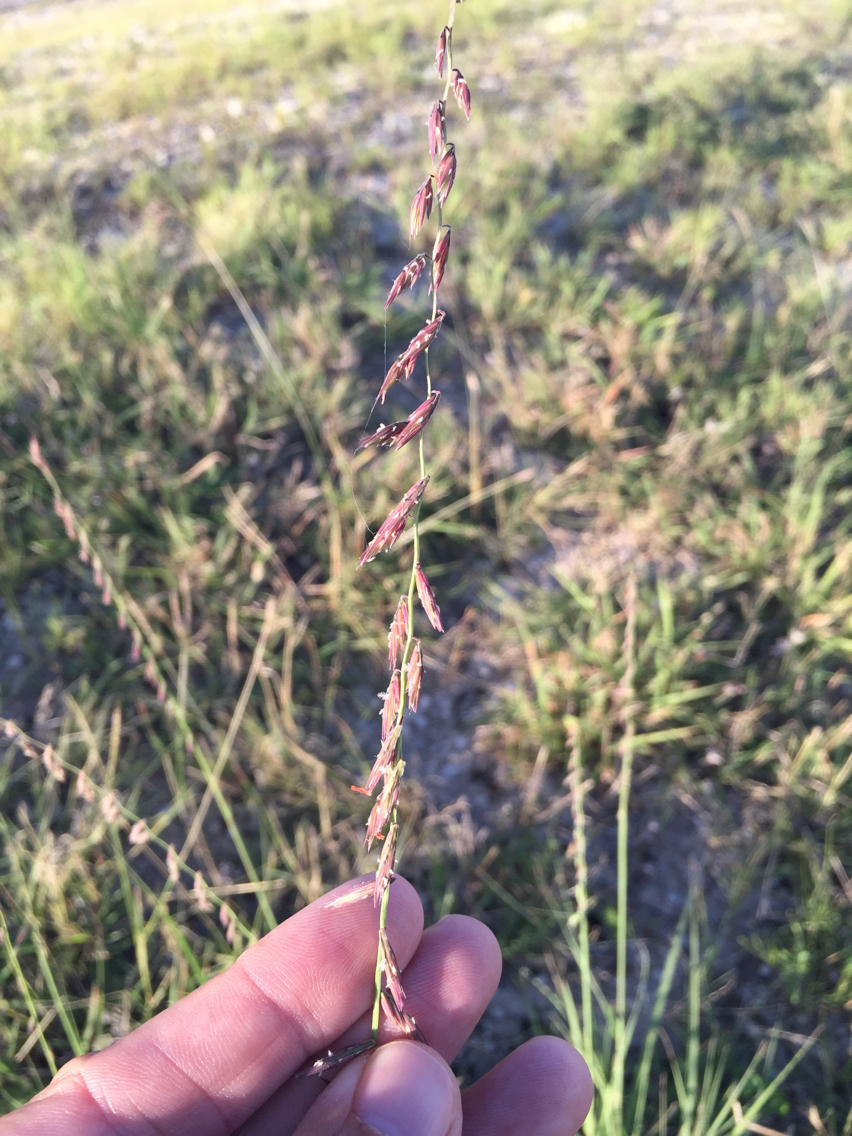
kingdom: Plantae
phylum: Tracheophyta
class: Liliopsida
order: Poales
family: Poaceae
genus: Bouteloua
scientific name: Bouteloua curtipendula
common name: Side-oats grama
